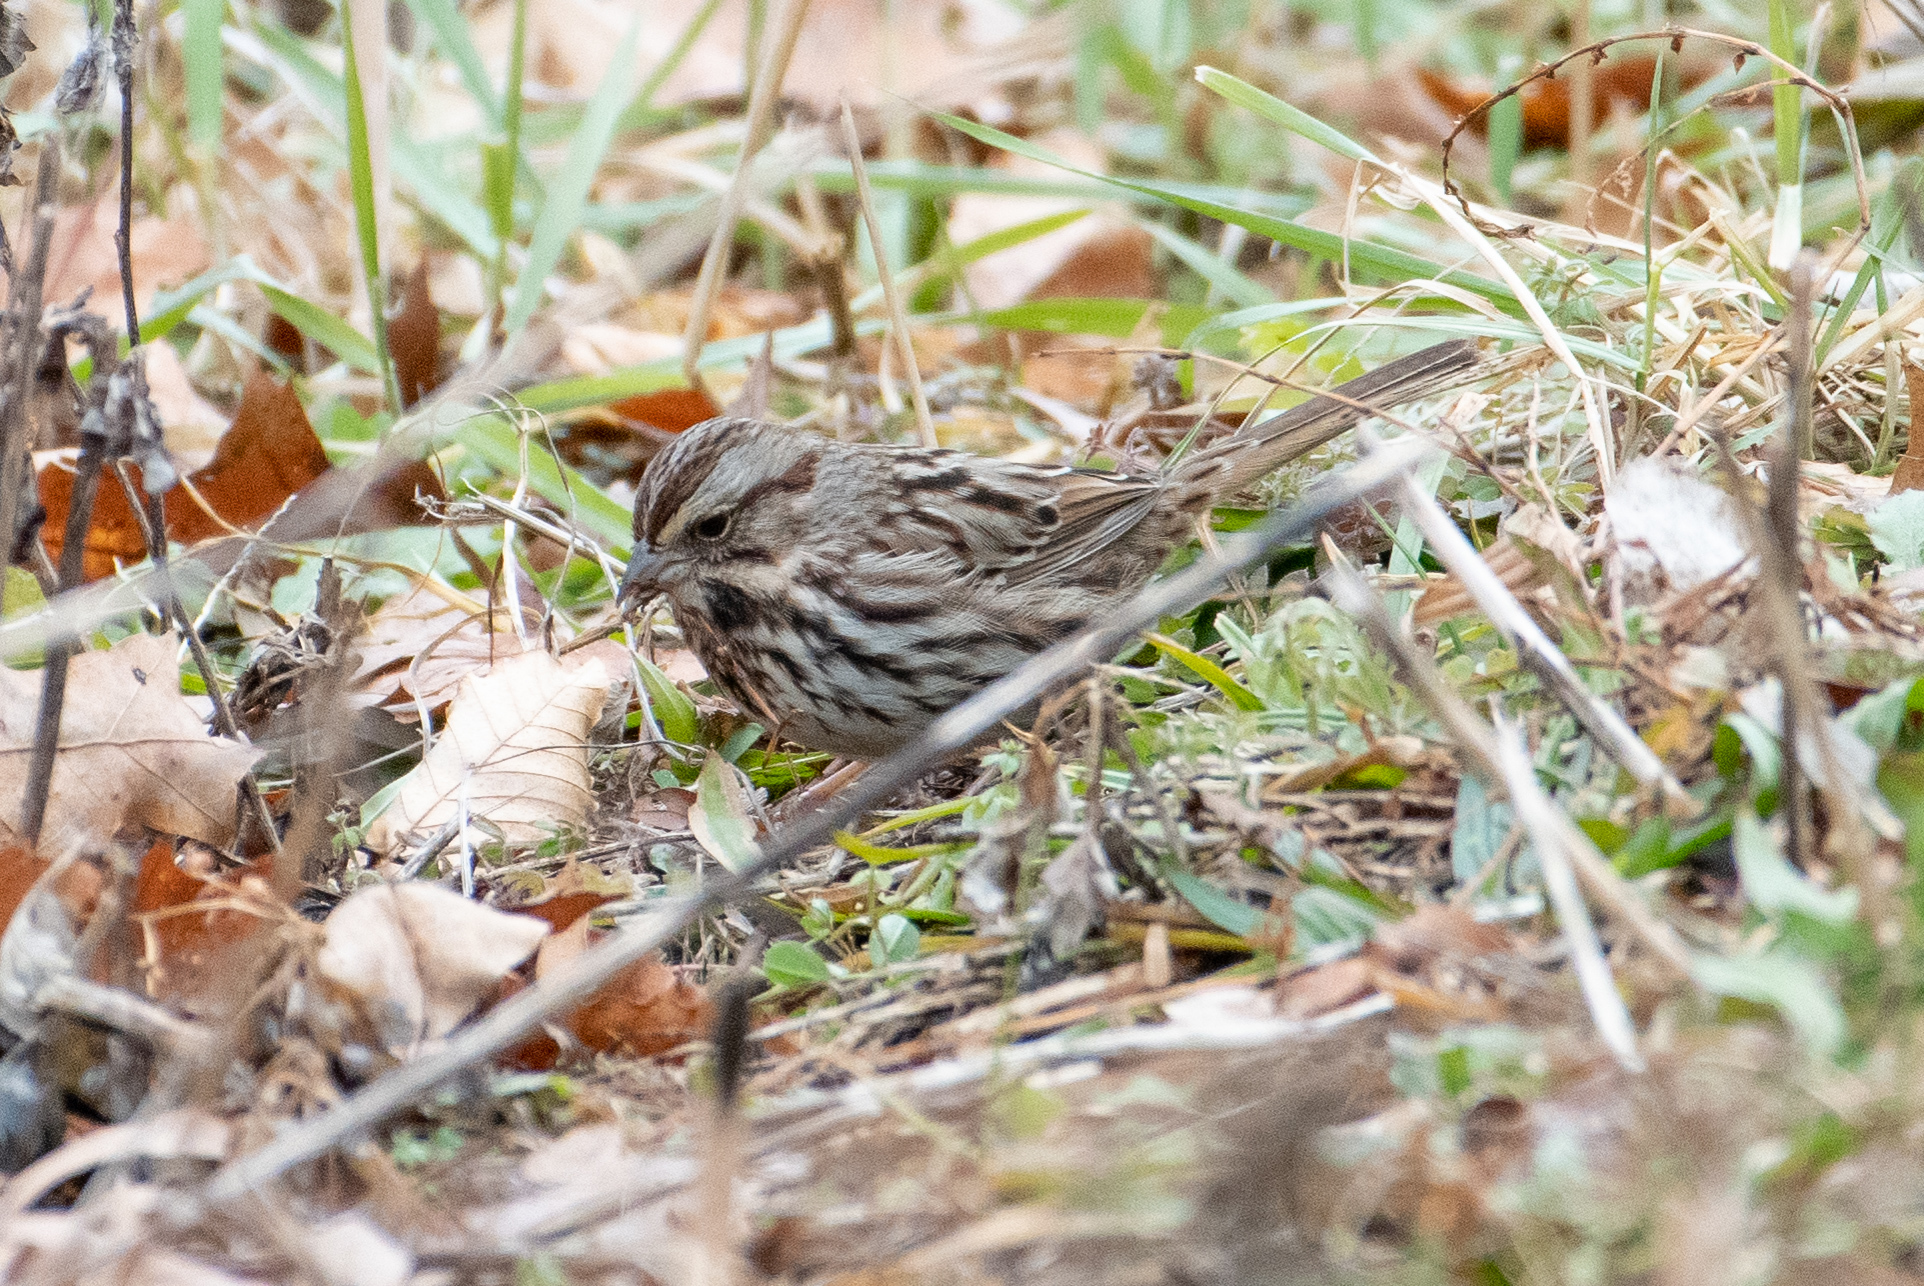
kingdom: Animalia
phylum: Chordata
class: Aves
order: Passeriformes
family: Passerellidae
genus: Melospiza
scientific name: Melospiza melodia
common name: Song sparrow
